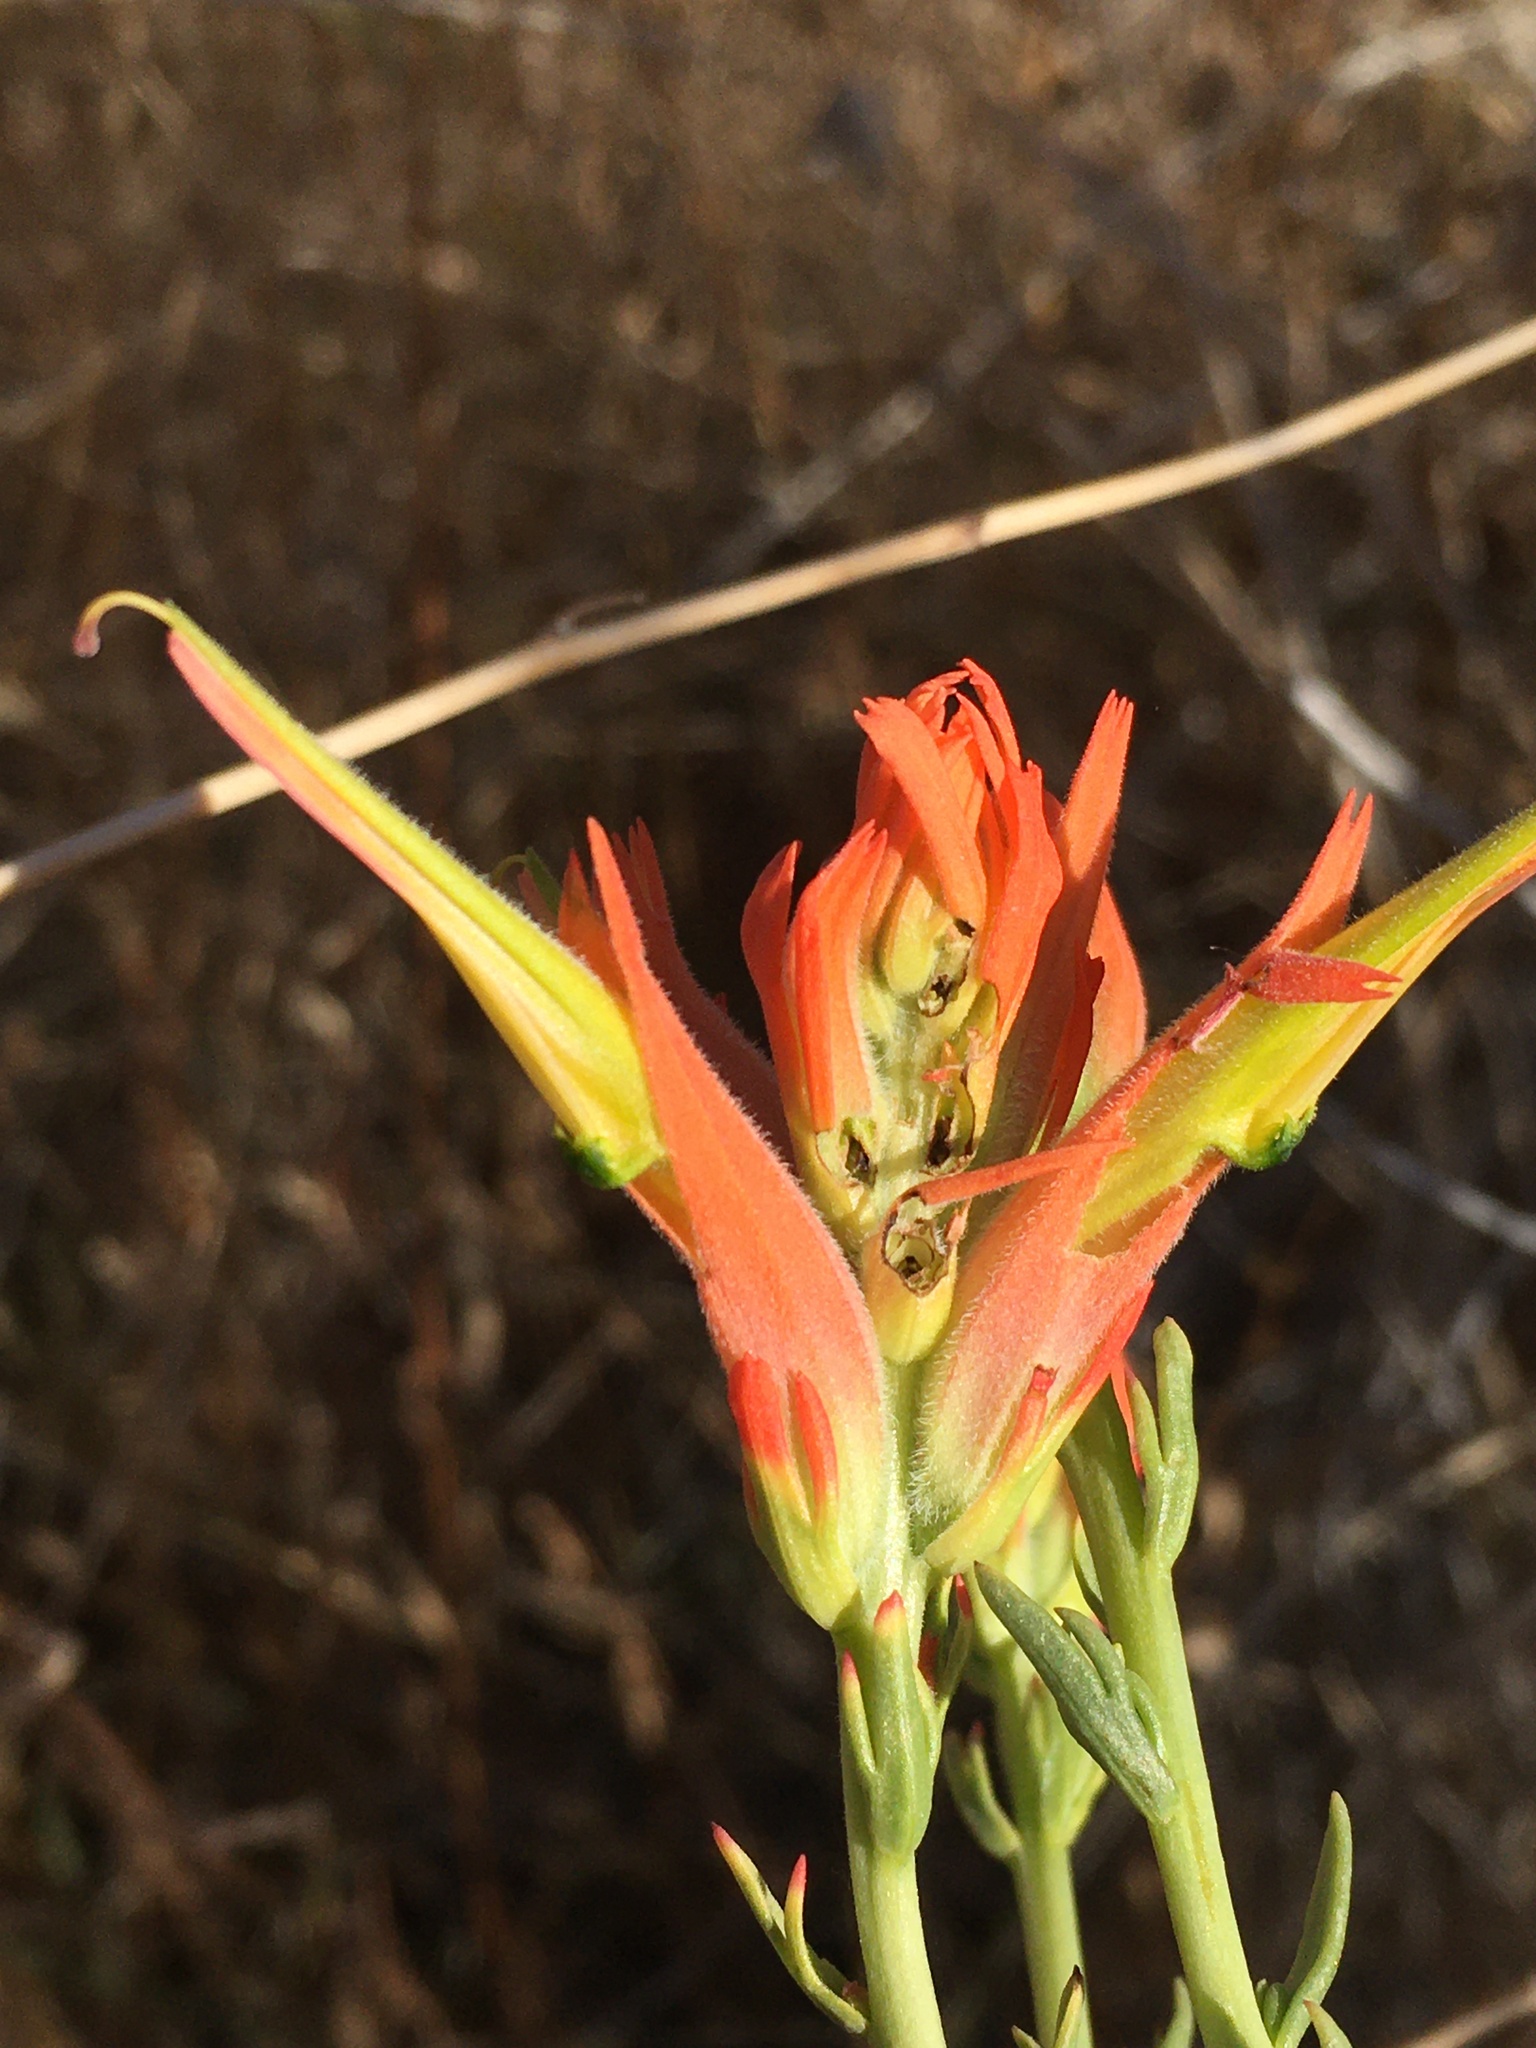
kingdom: Plantae
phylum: Tracheophyta
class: Magnoliopsida
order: Lamiales
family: Orobanchaceae
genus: Castilleja
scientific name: Castilleja linariifolia
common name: Wyoming paintbrush
